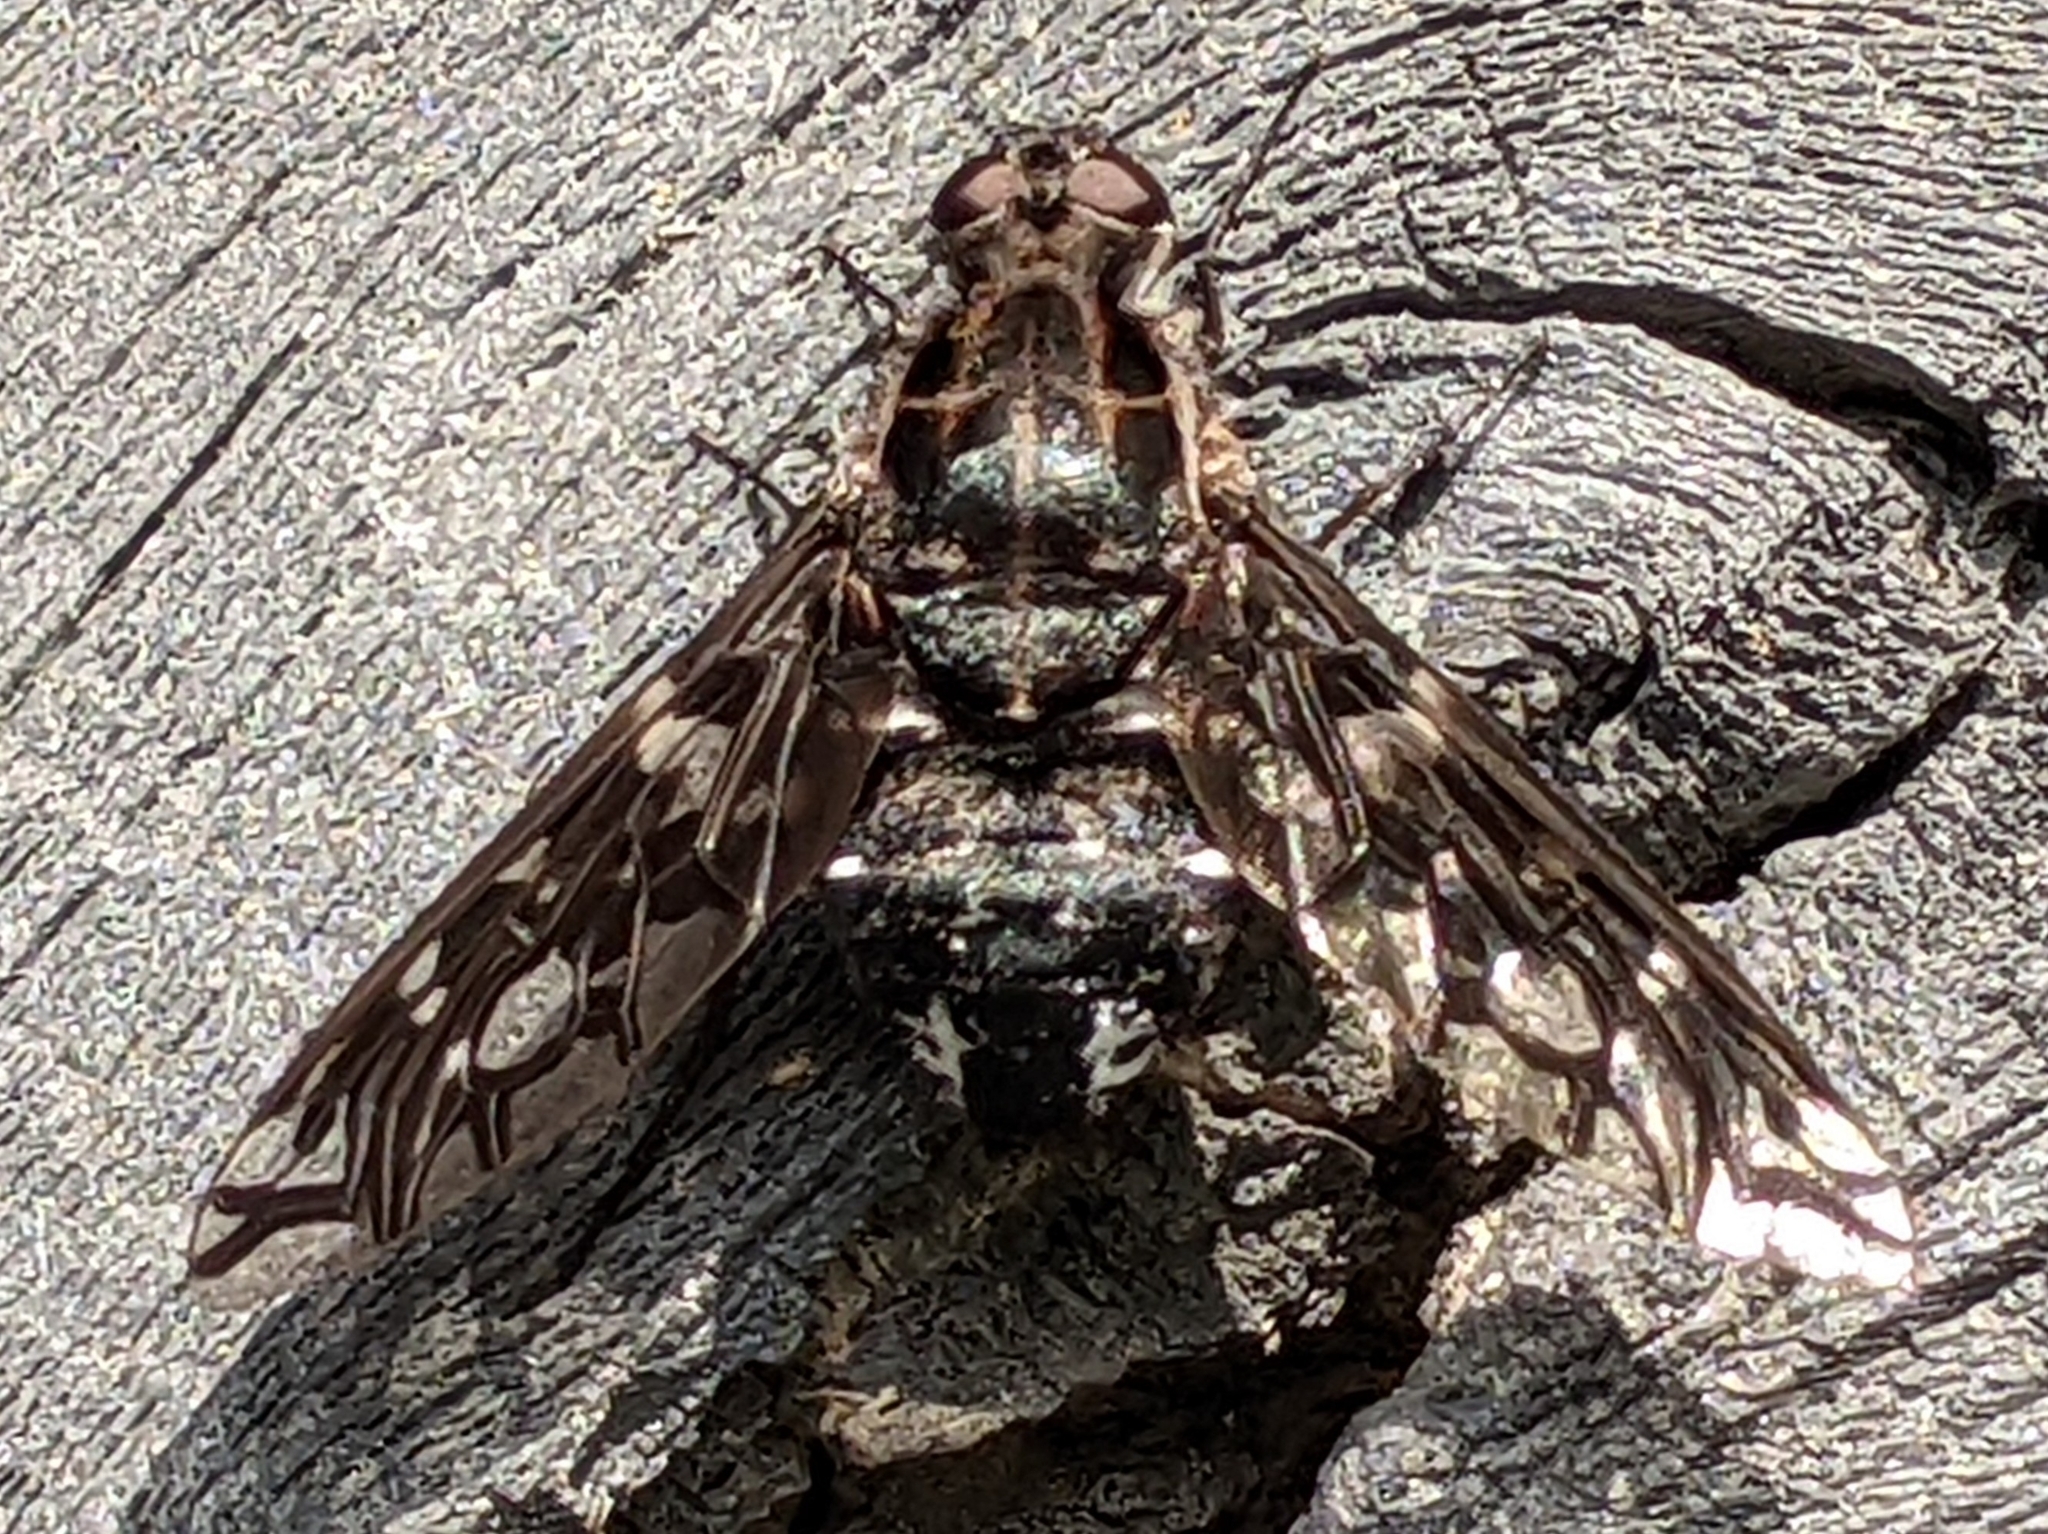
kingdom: Animalia
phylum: Arthropoda
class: Insecta
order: Diptera
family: Bombyliidae
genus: Xenox
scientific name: Xenox tigrinus
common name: Tiger bee fly
